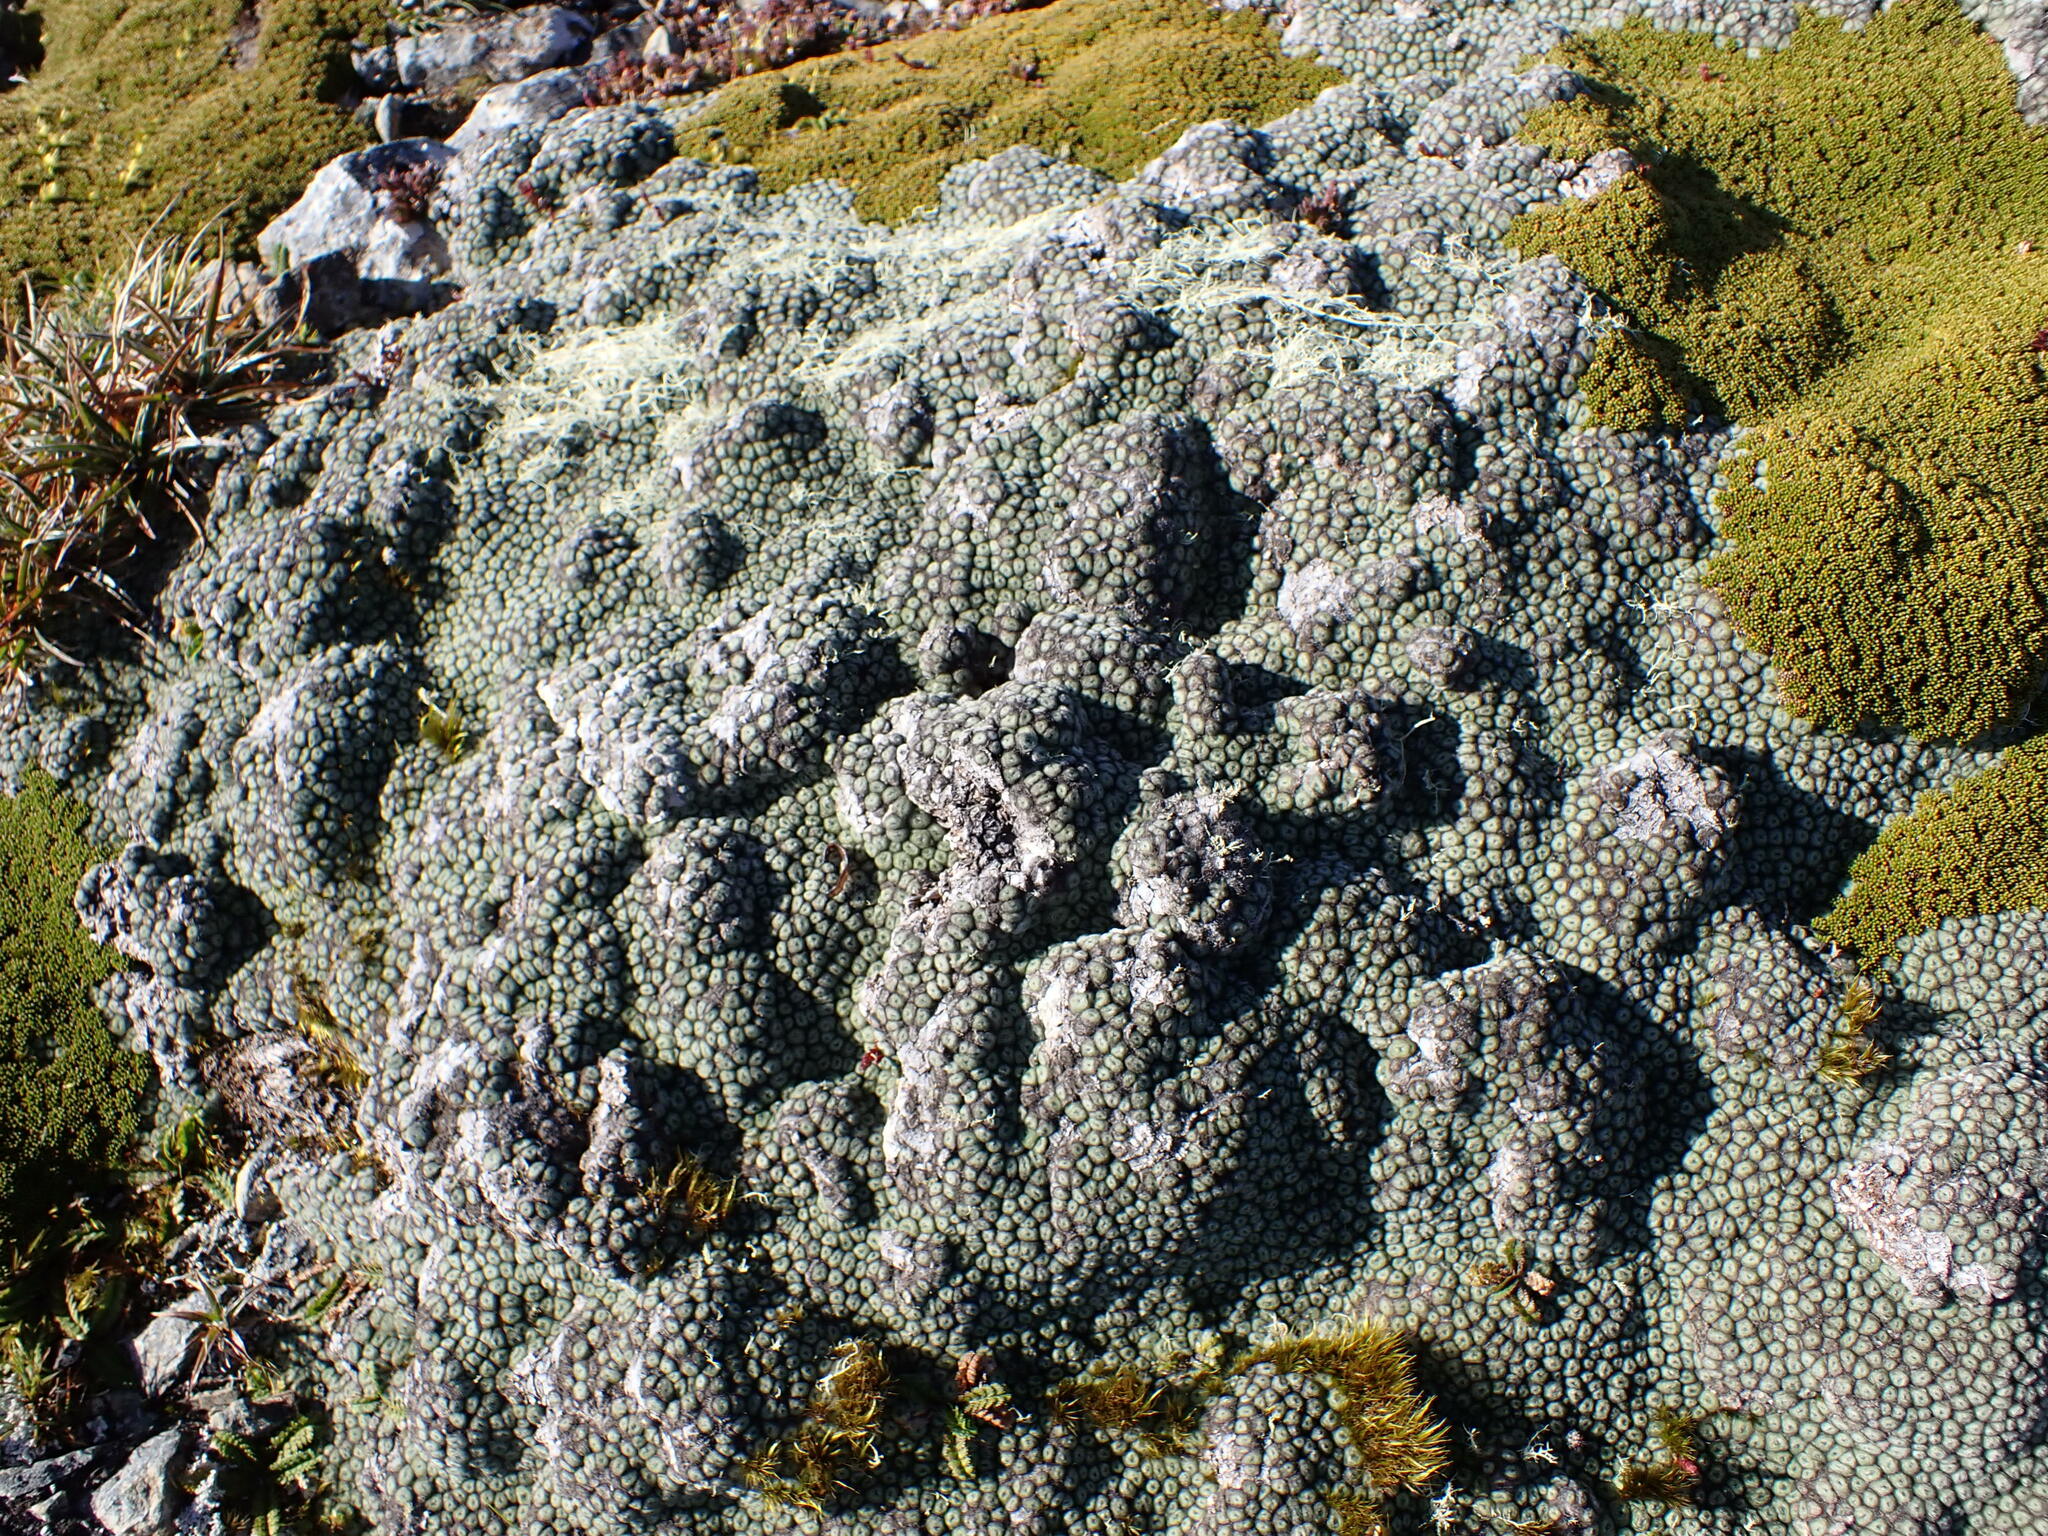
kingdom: Plantae
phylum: Tracheophyta
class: Magnoliopsida
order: Asterales
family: Asteraceae
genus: Raoulia
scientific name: Raoulia rubra
